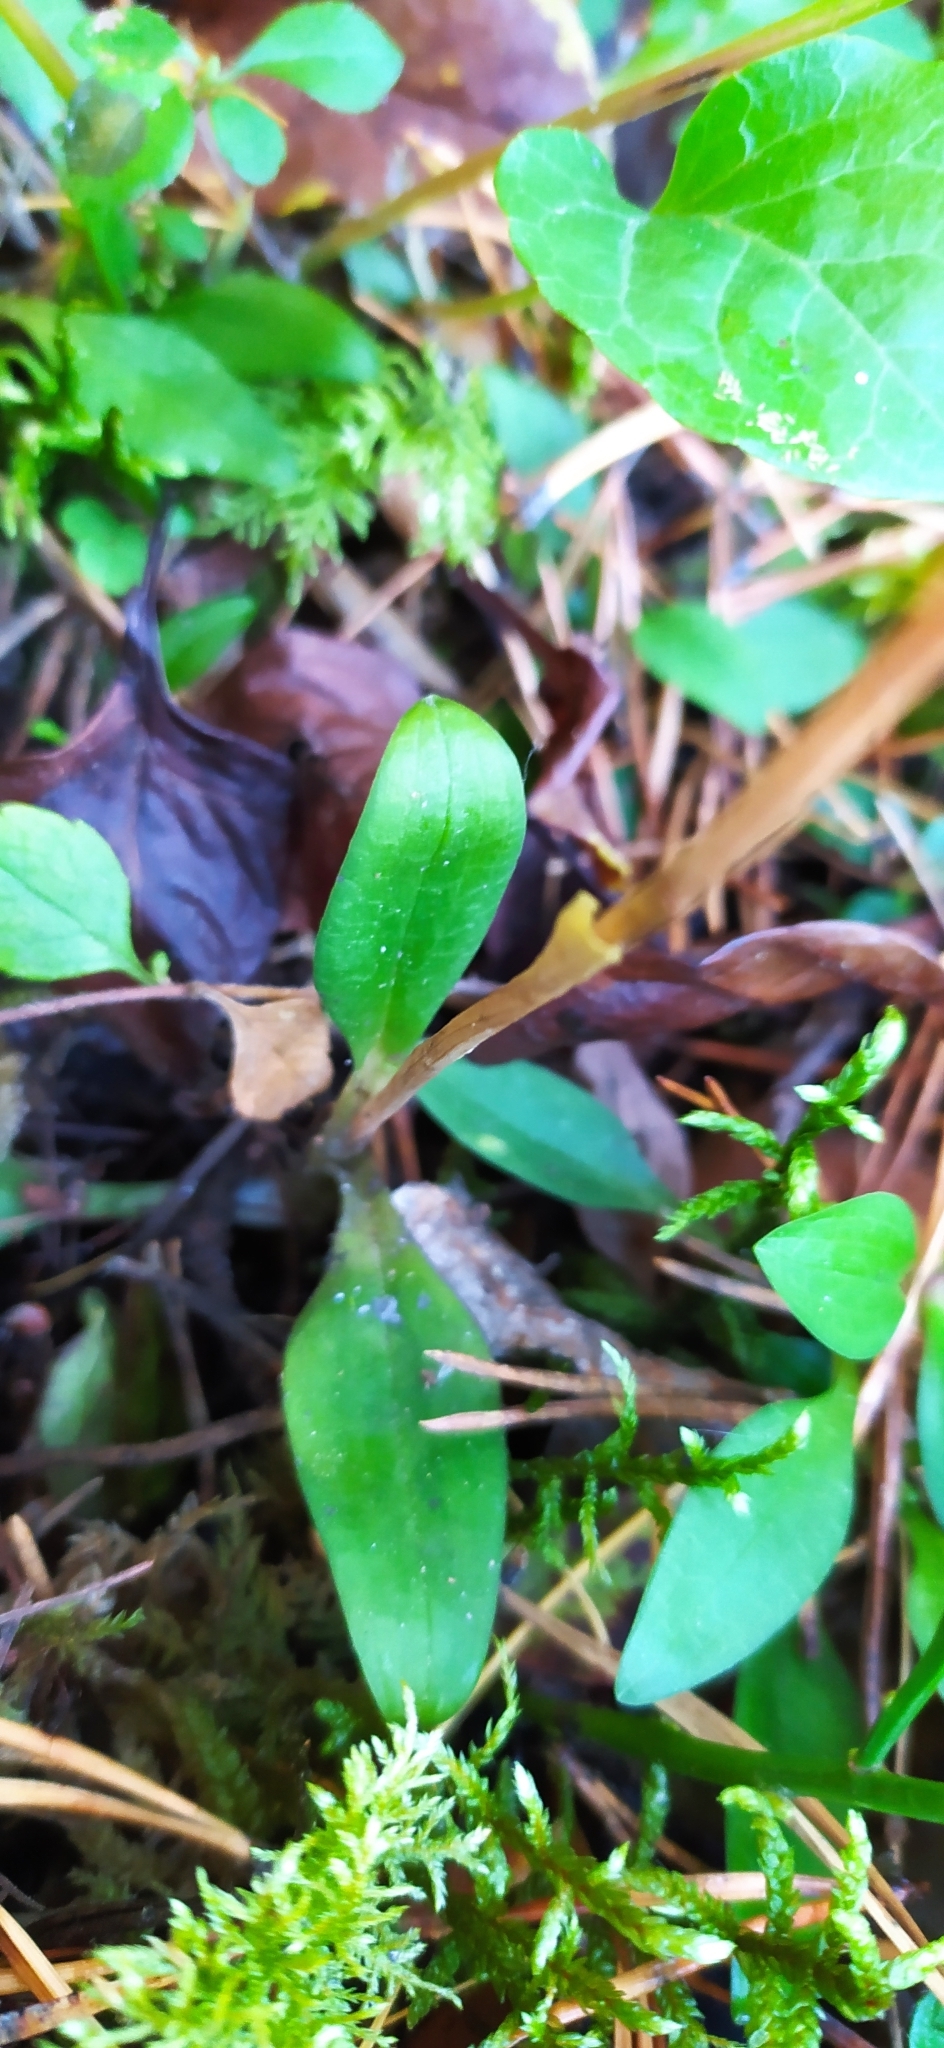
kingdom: Plantae
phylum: Tracheophyta
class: Liliopsida
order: Asparagales
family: Orchidaceae
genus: Goodyera
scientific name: Goodyera repens
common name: Creeping lady's-tresses
